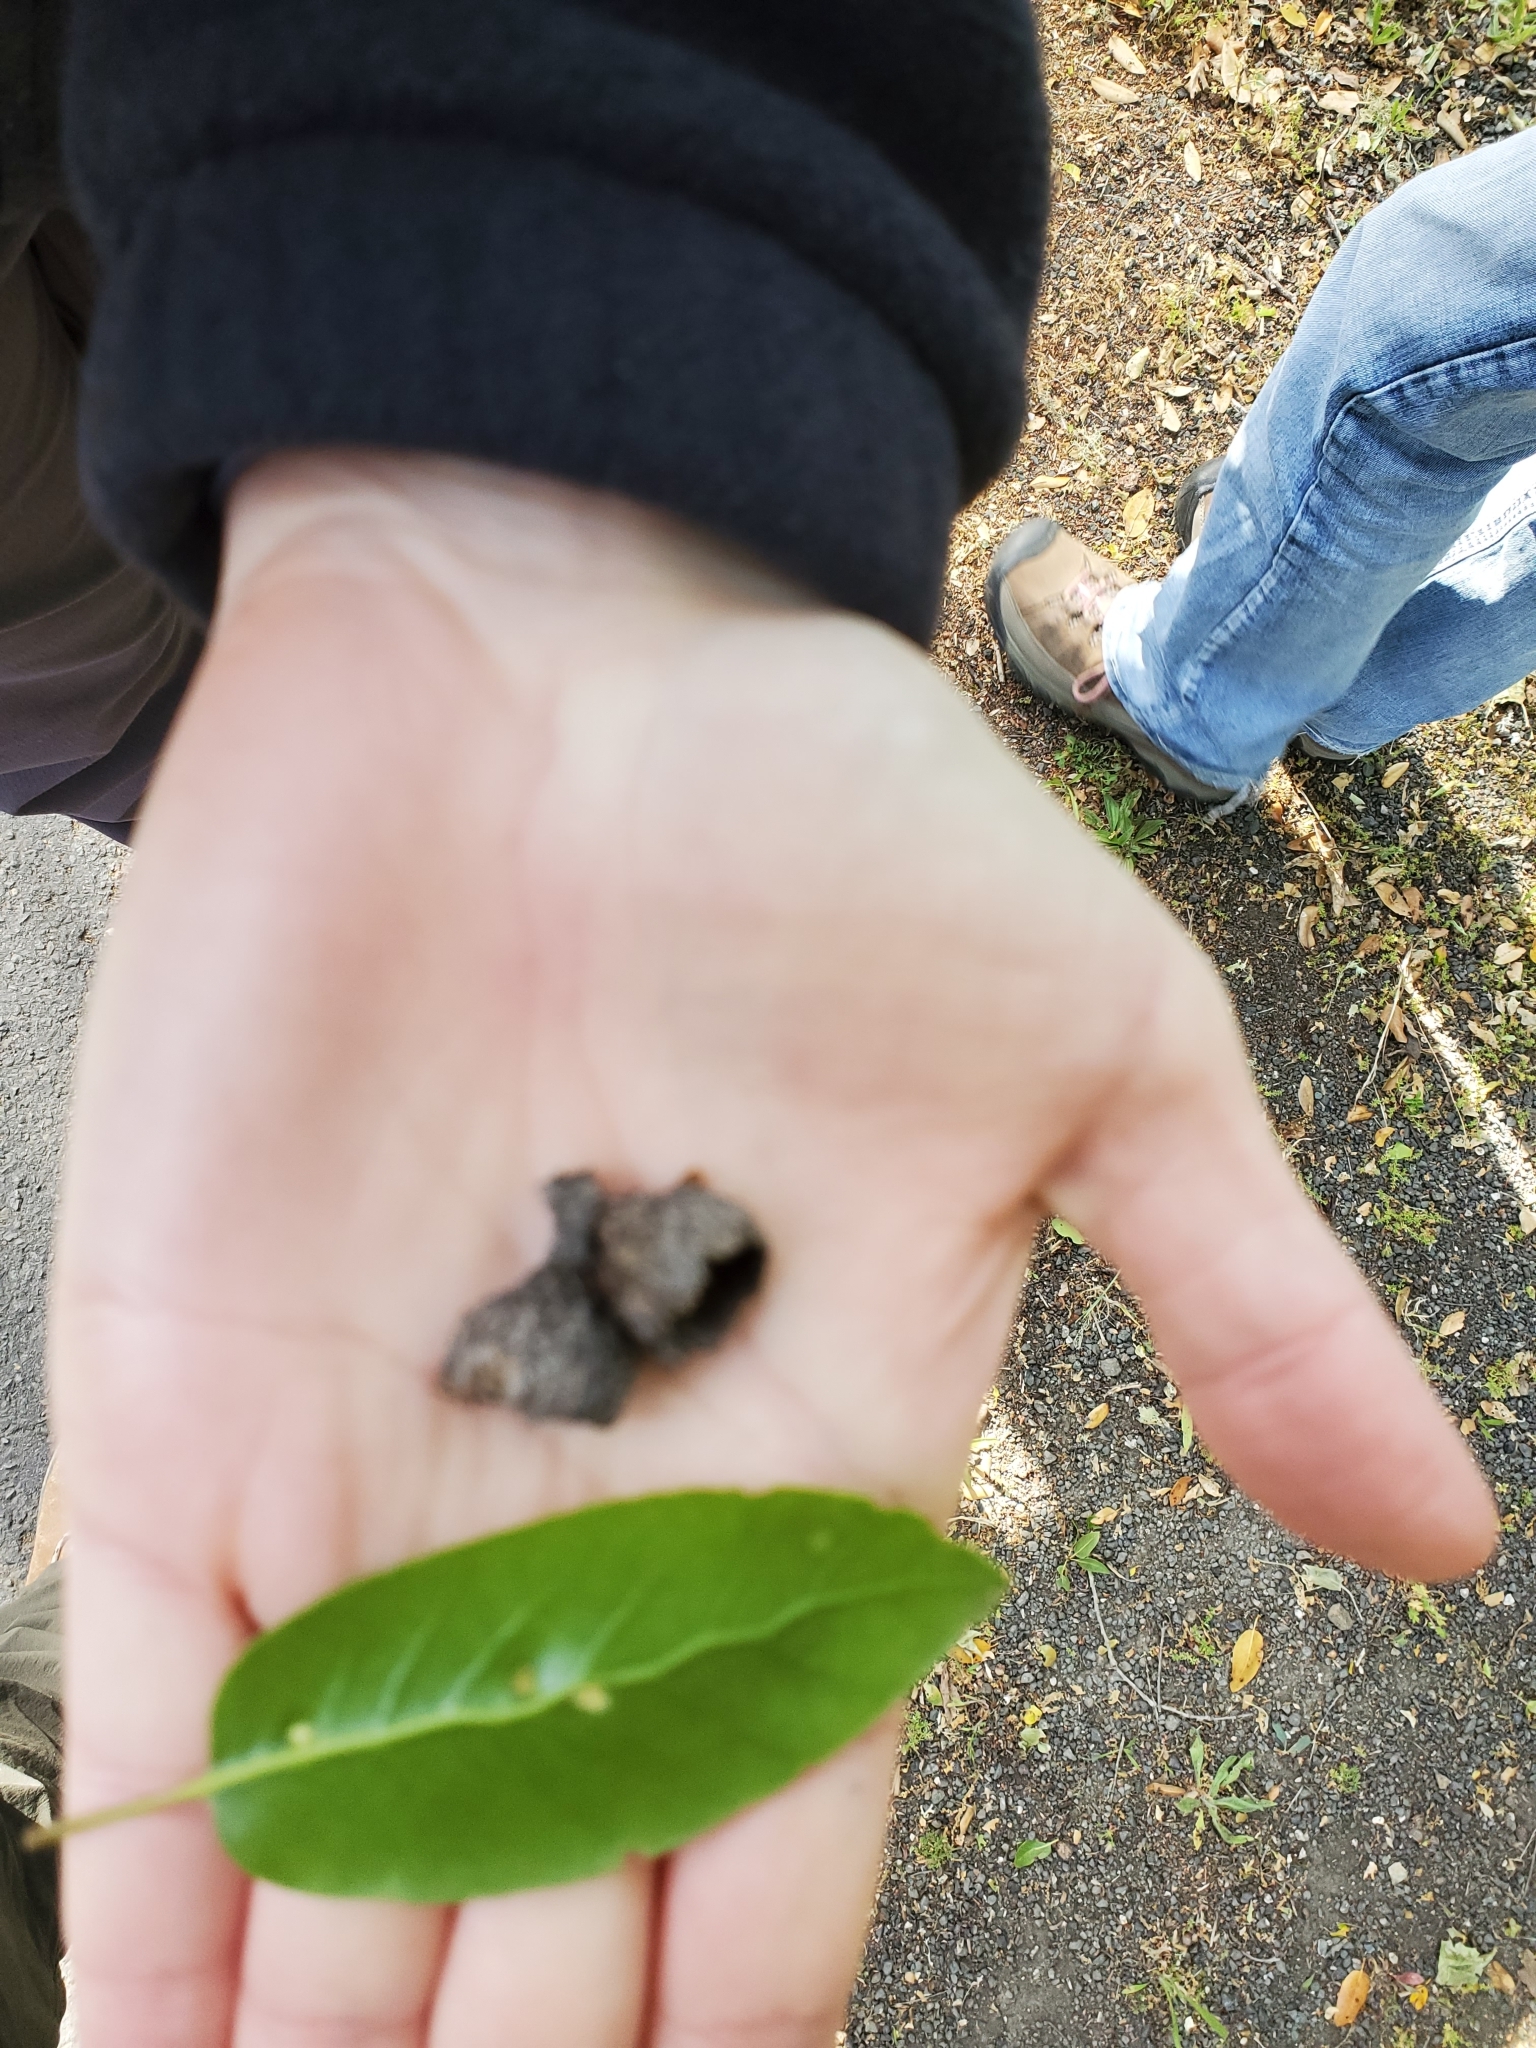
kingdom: Plantae
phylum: Tracheophyta
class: Magnoliopsida
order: Fagales
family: Fagaceae
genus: Quercus
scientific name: Quercus wislizeni
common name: Interior live oak
